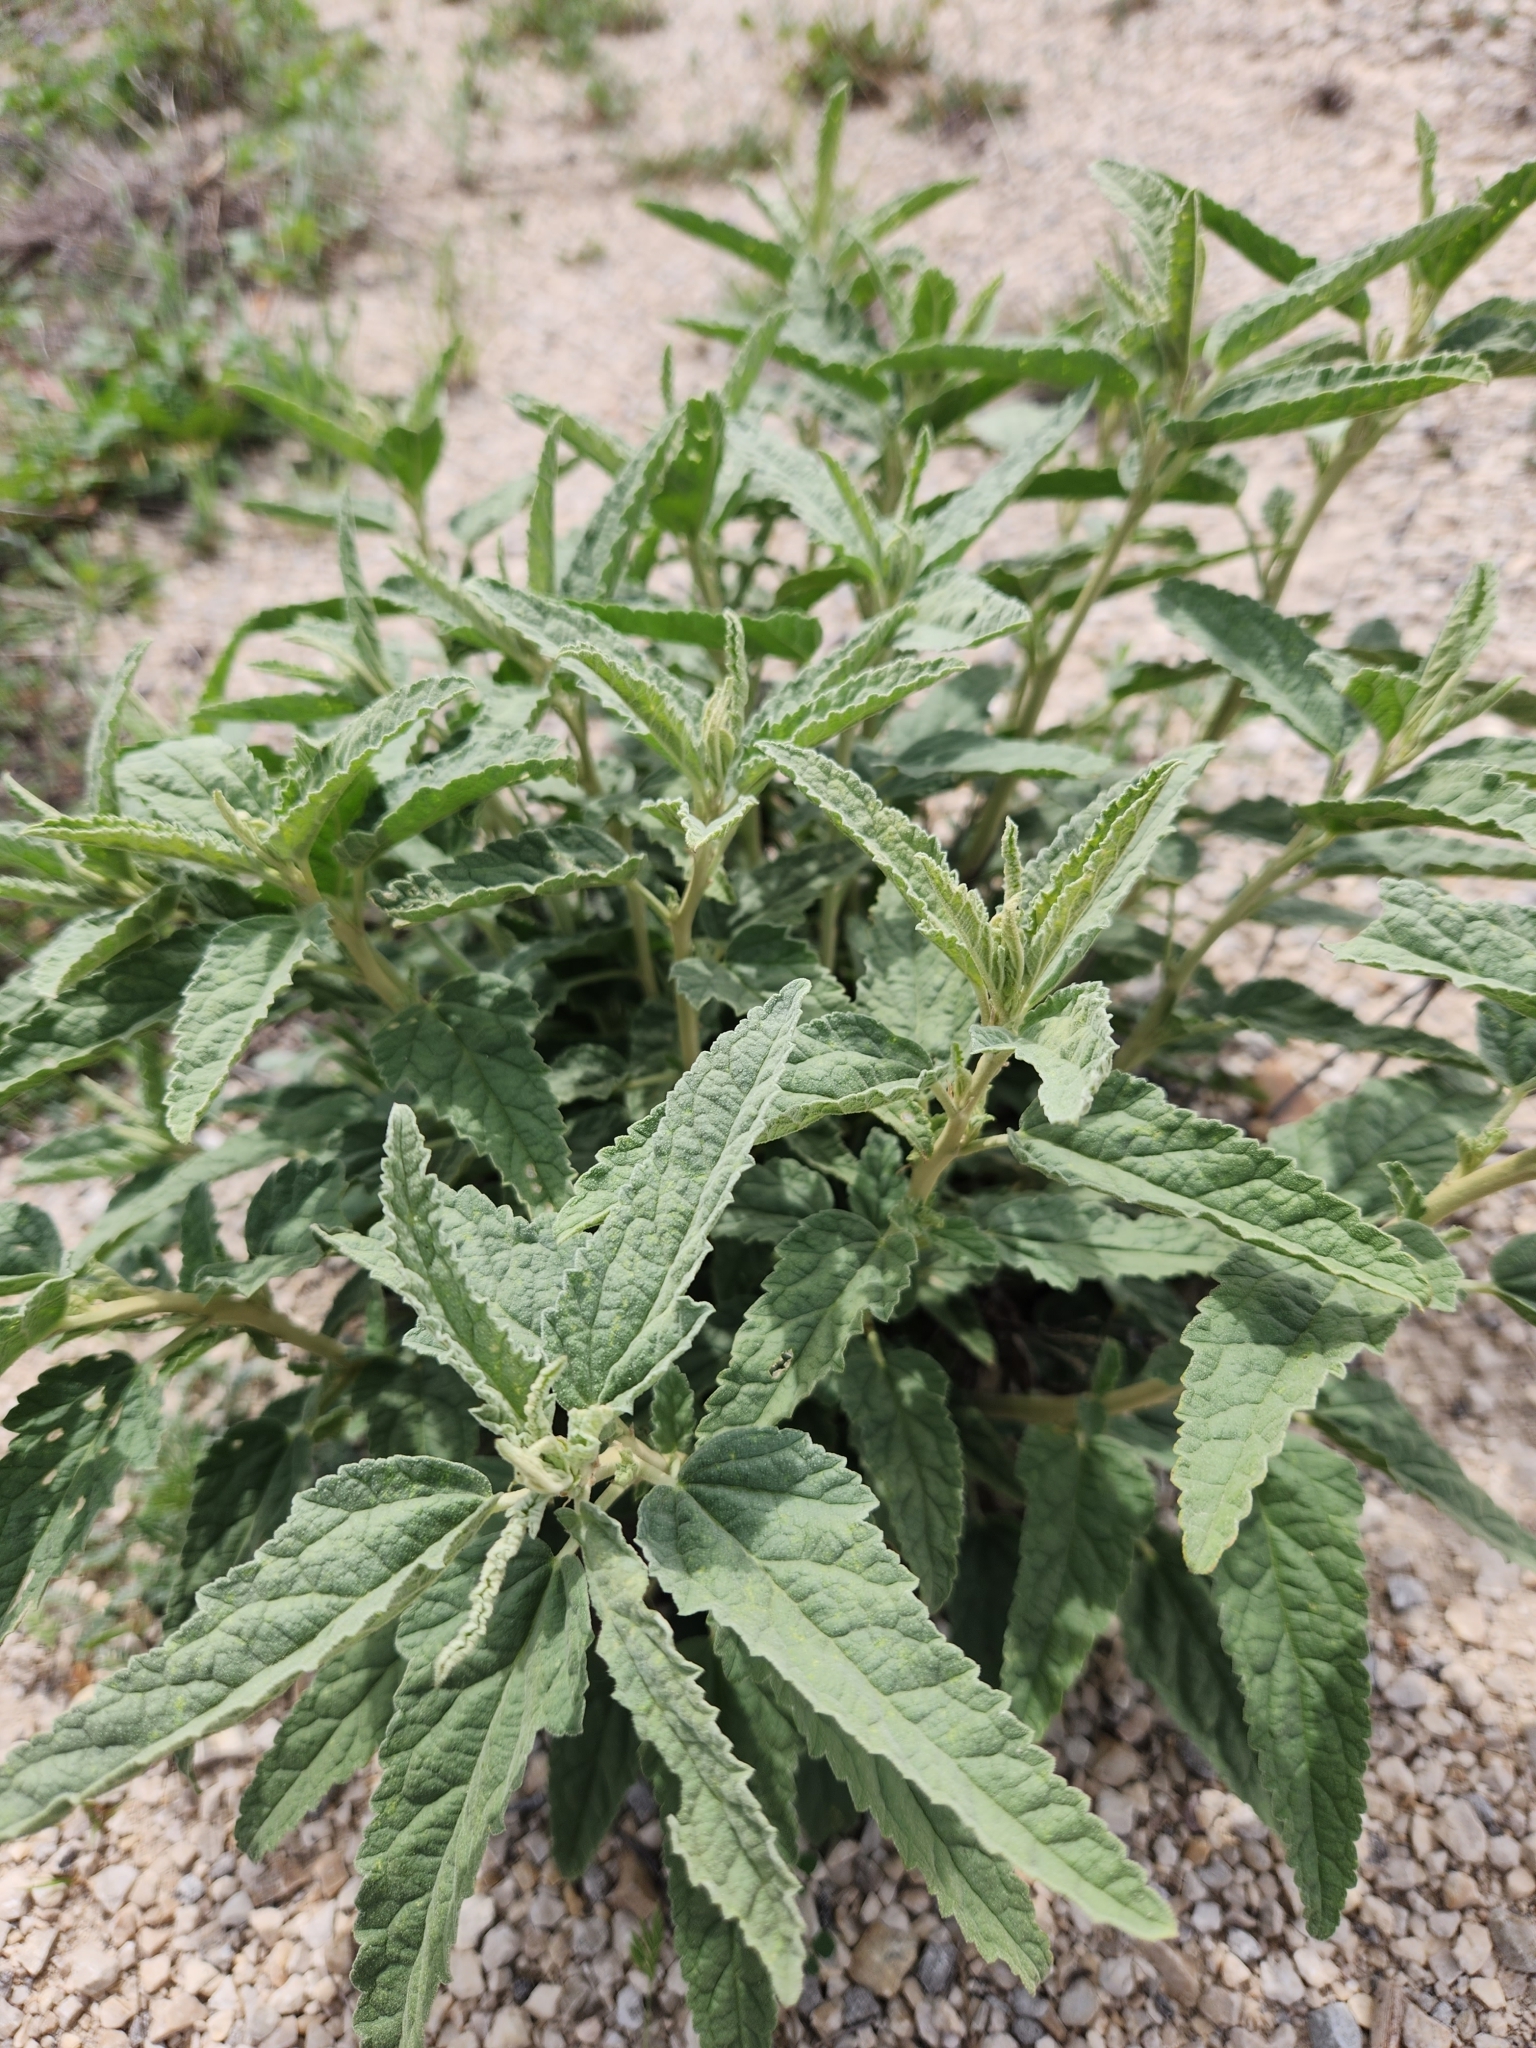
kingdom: Plantae
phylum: Tracheophyta
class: Magnoliopsida
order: Malvales
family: Malvaceae
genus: Sphaeralcea
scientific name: Sphaeralcea angustifolia
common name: Copper globe-mallow
